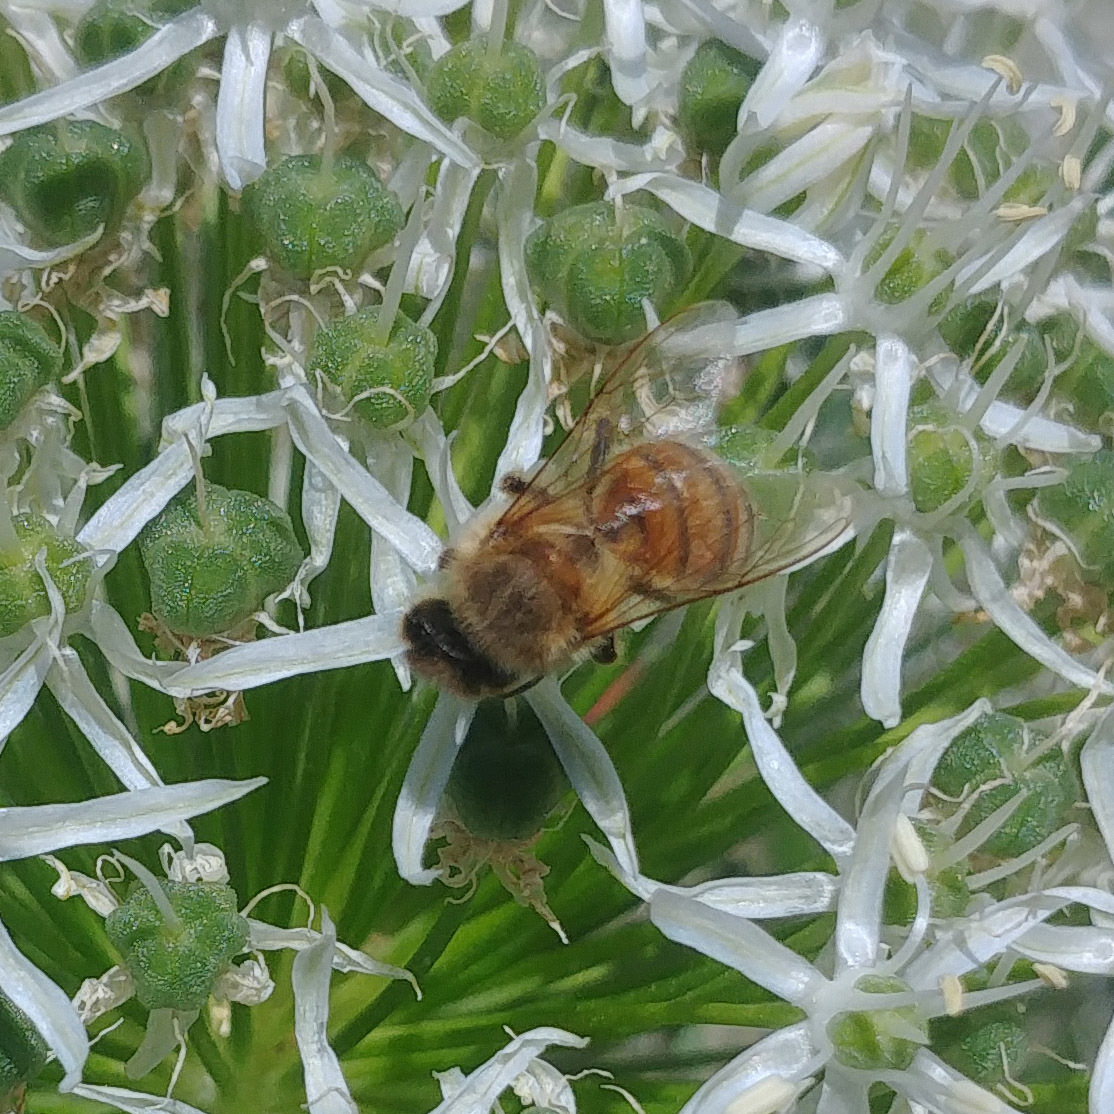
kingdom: Animalia
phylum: Arthropoda
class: Insecta
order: Hymenoptera
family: Apidae
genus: Apis
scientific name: Apis mellifera
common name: Honey bee
